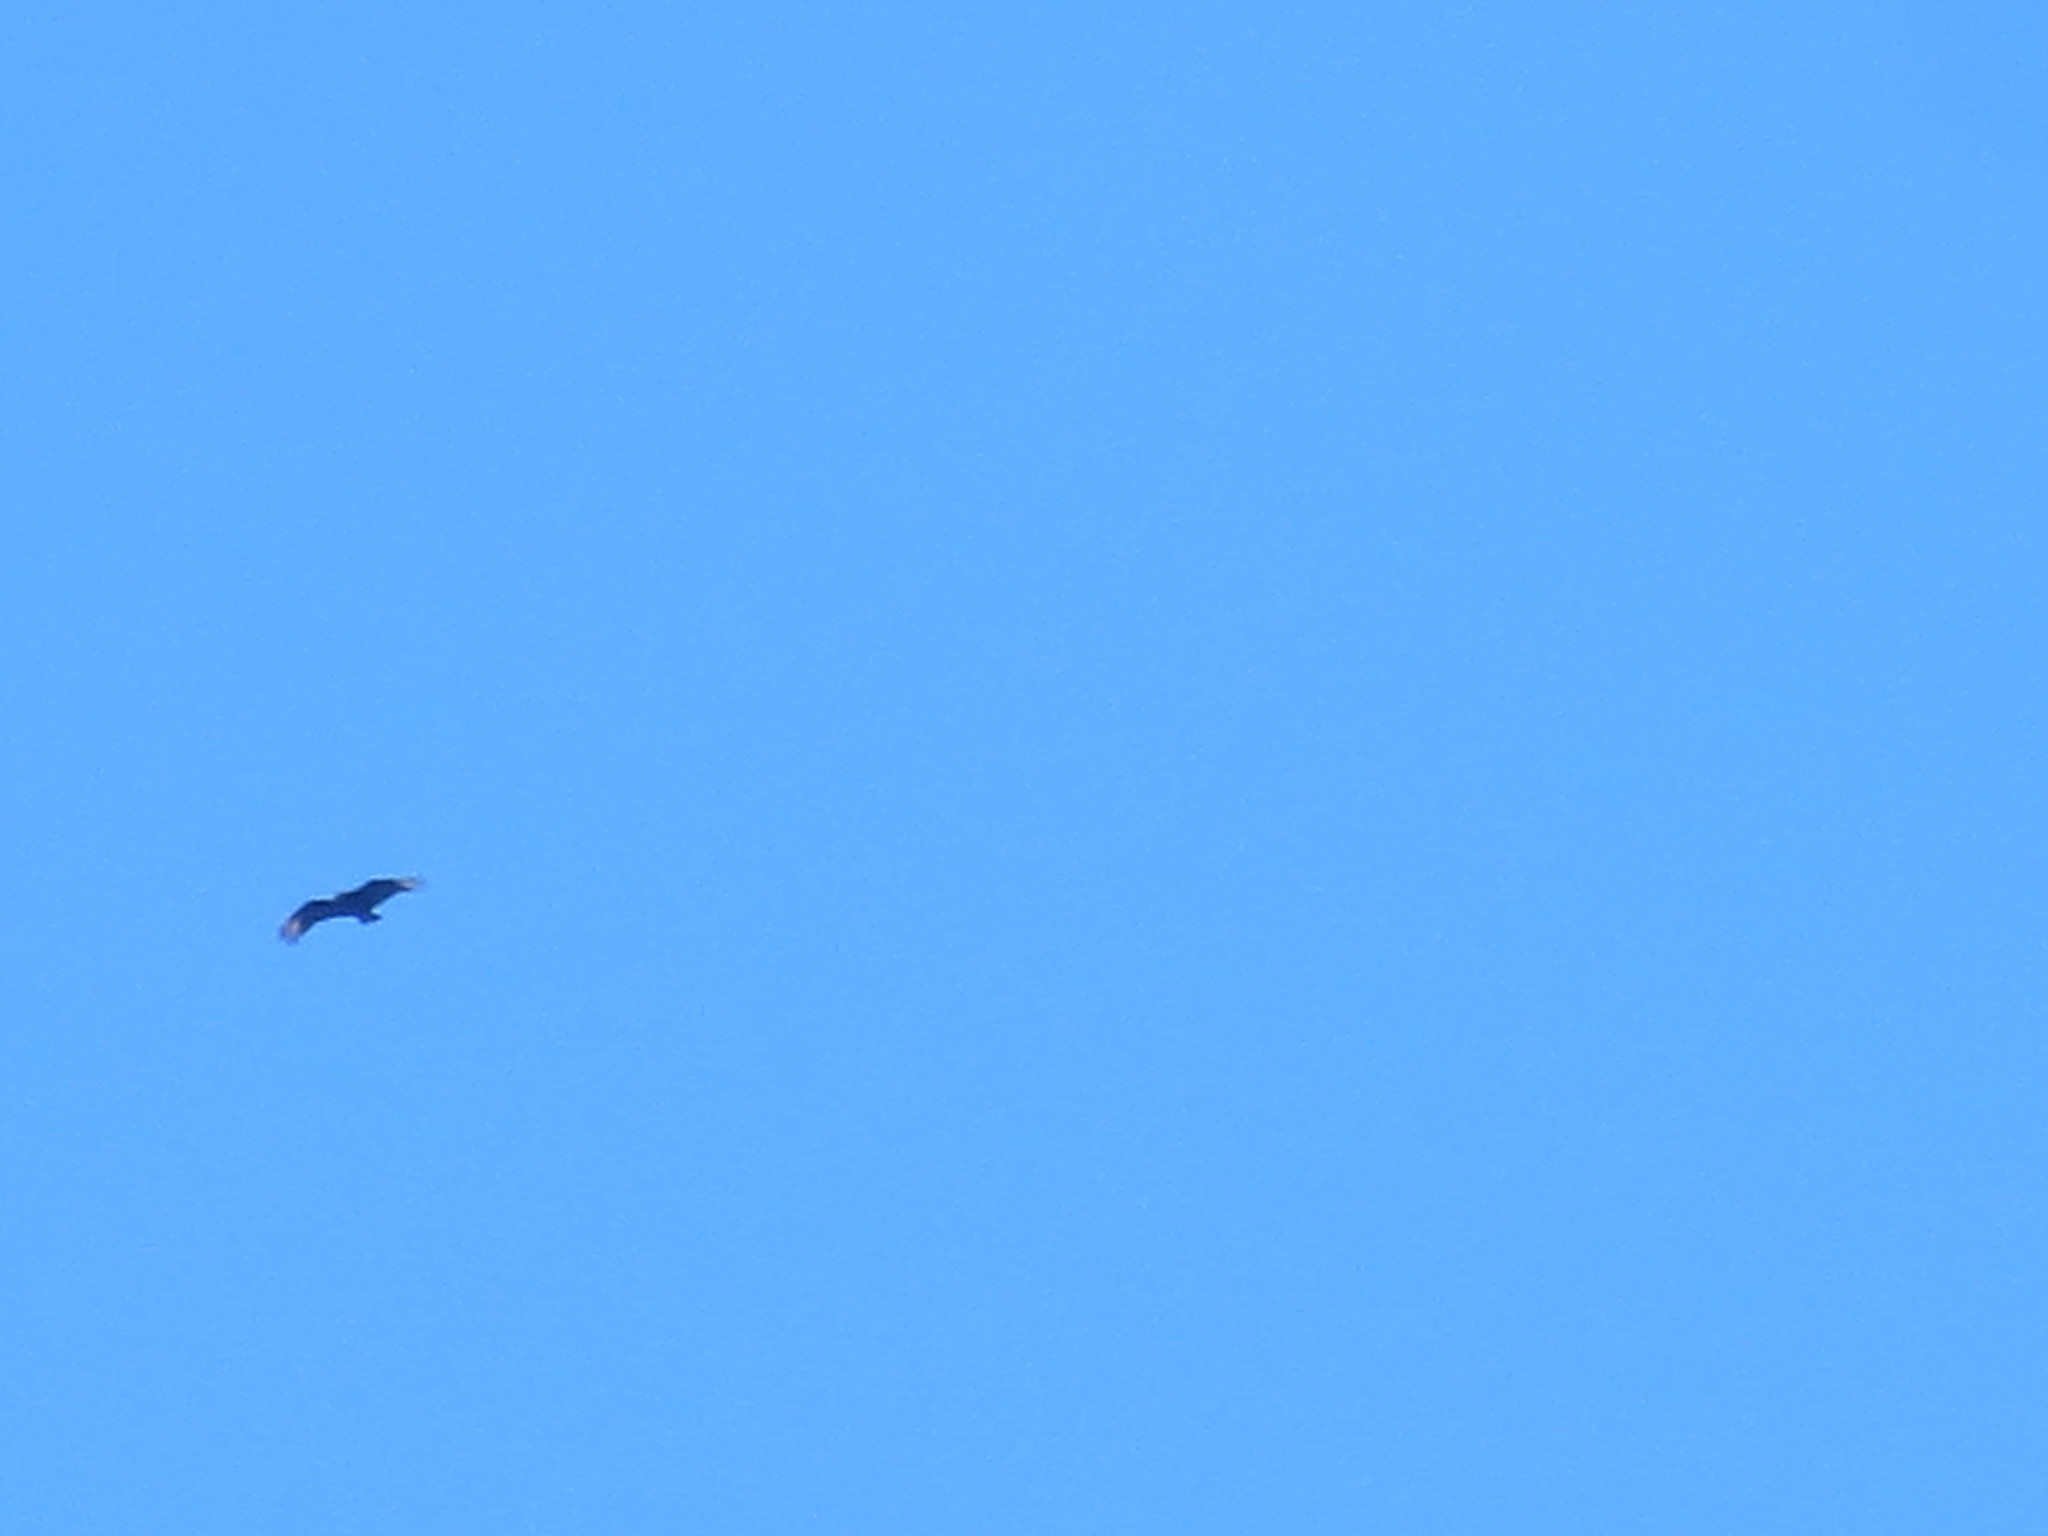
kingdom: Animalia
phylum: Chordata
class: Aves
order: Accipitriformes
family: Cathartidae
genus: Coragyps
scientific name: Coragyps atratus
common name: Black vulture
